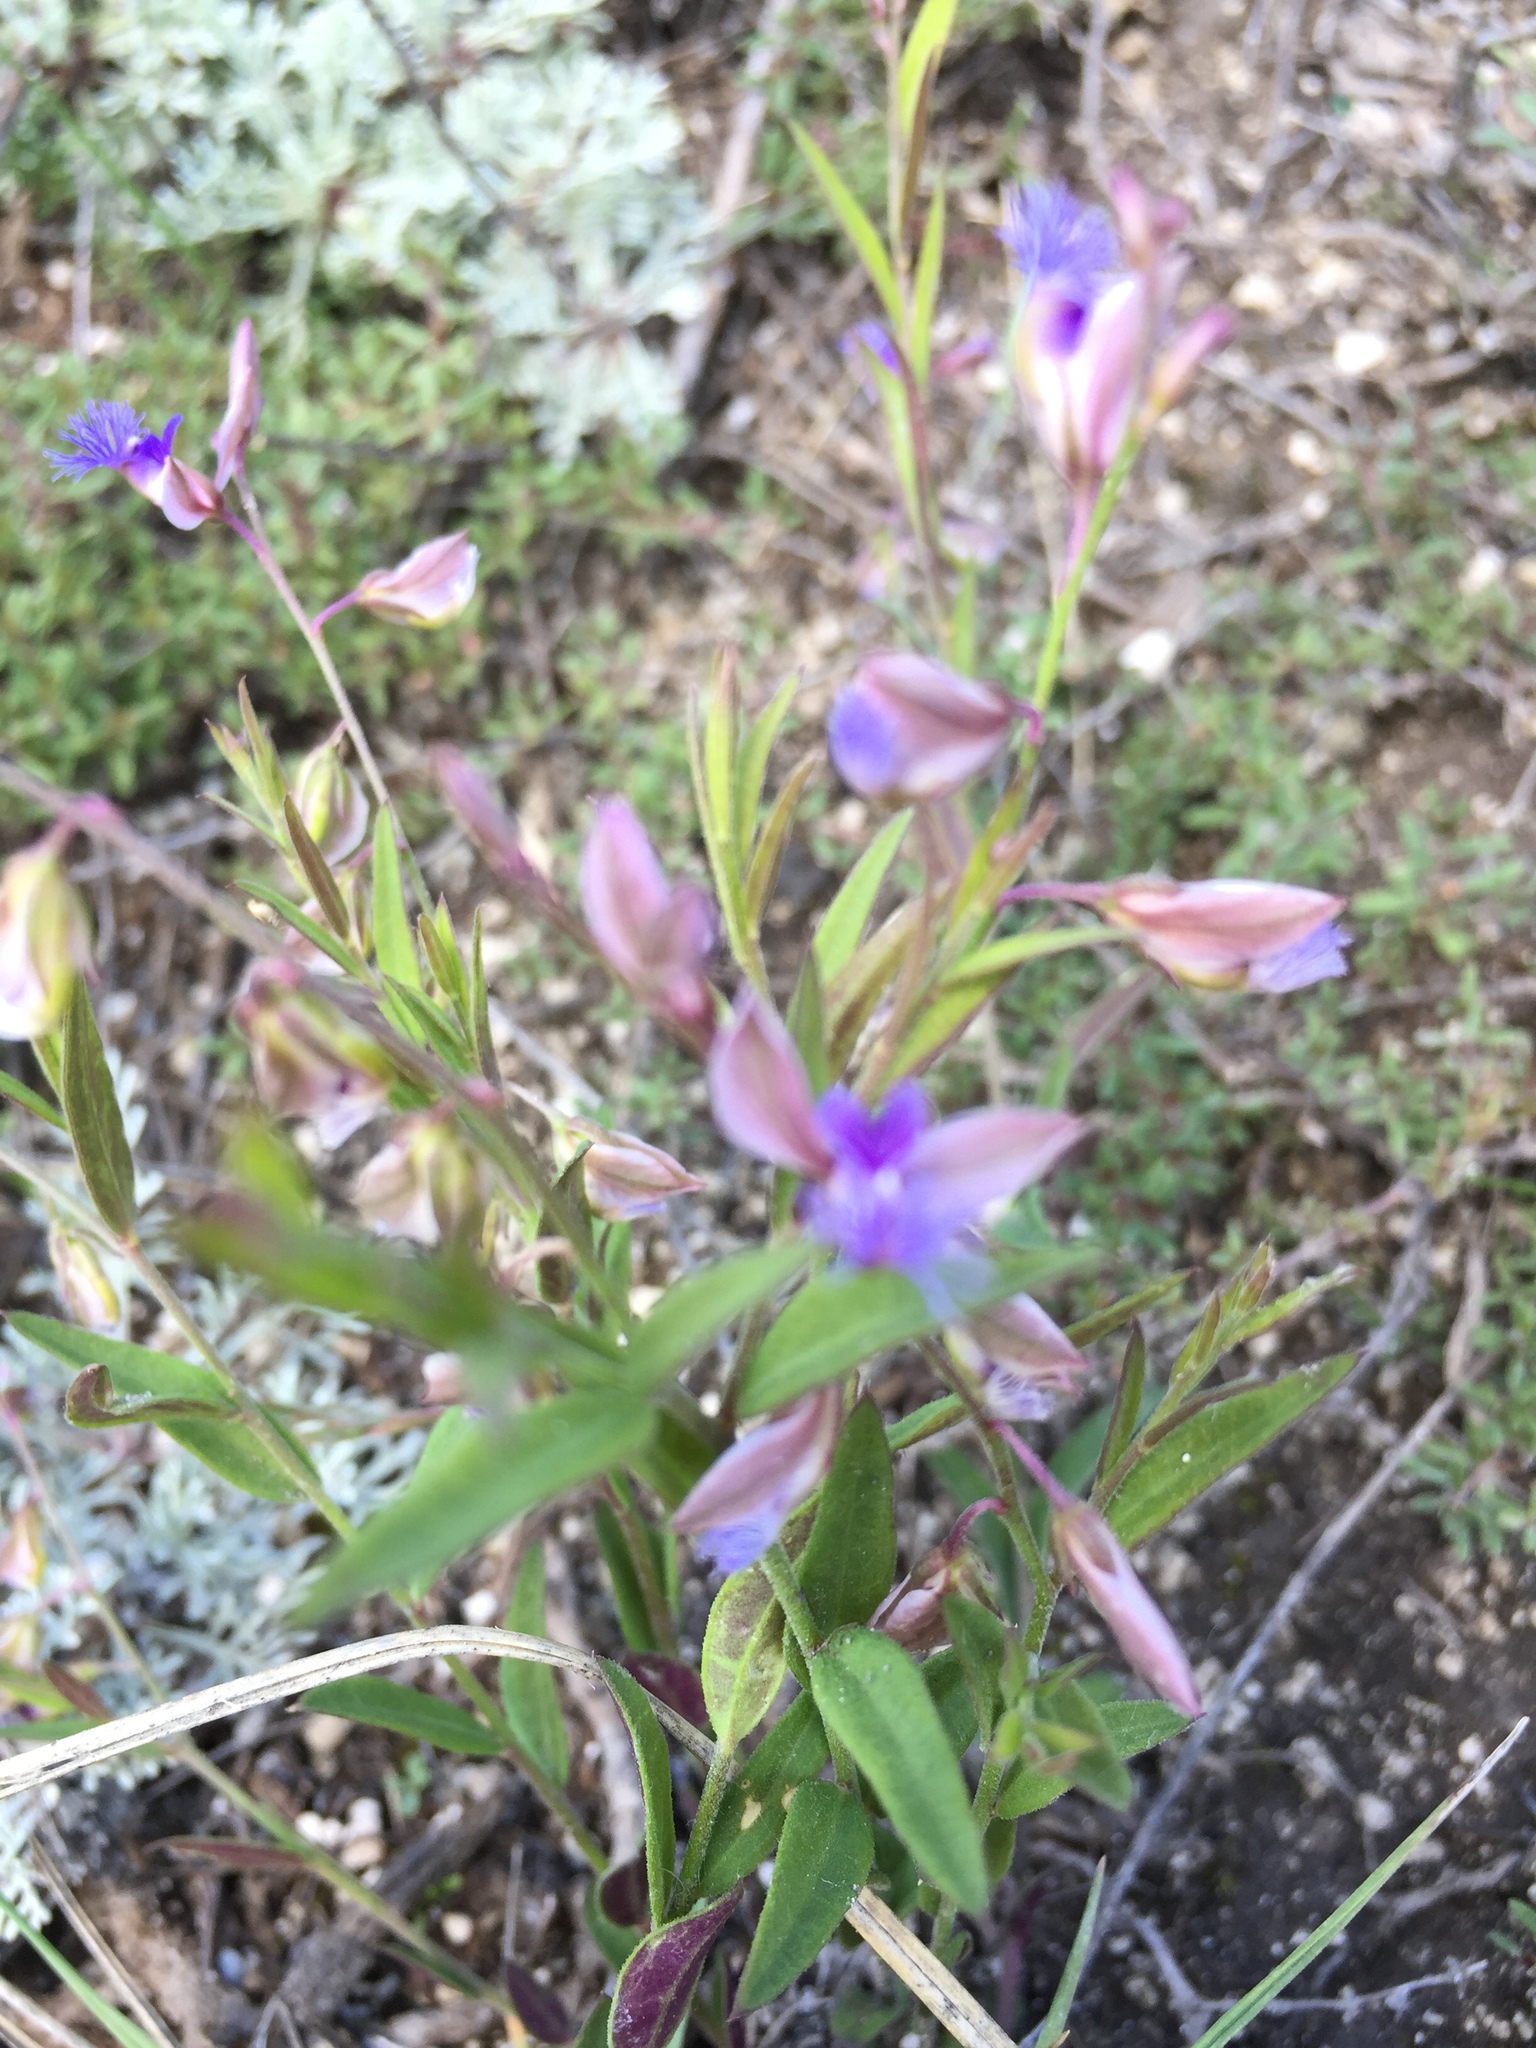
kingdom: Plantae
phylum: Tracheophyta
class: Magnoliopsida
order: Fabales
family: Polygalaceae
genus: Polygala
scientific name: Polygala sibirica
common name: Siberian polygala
